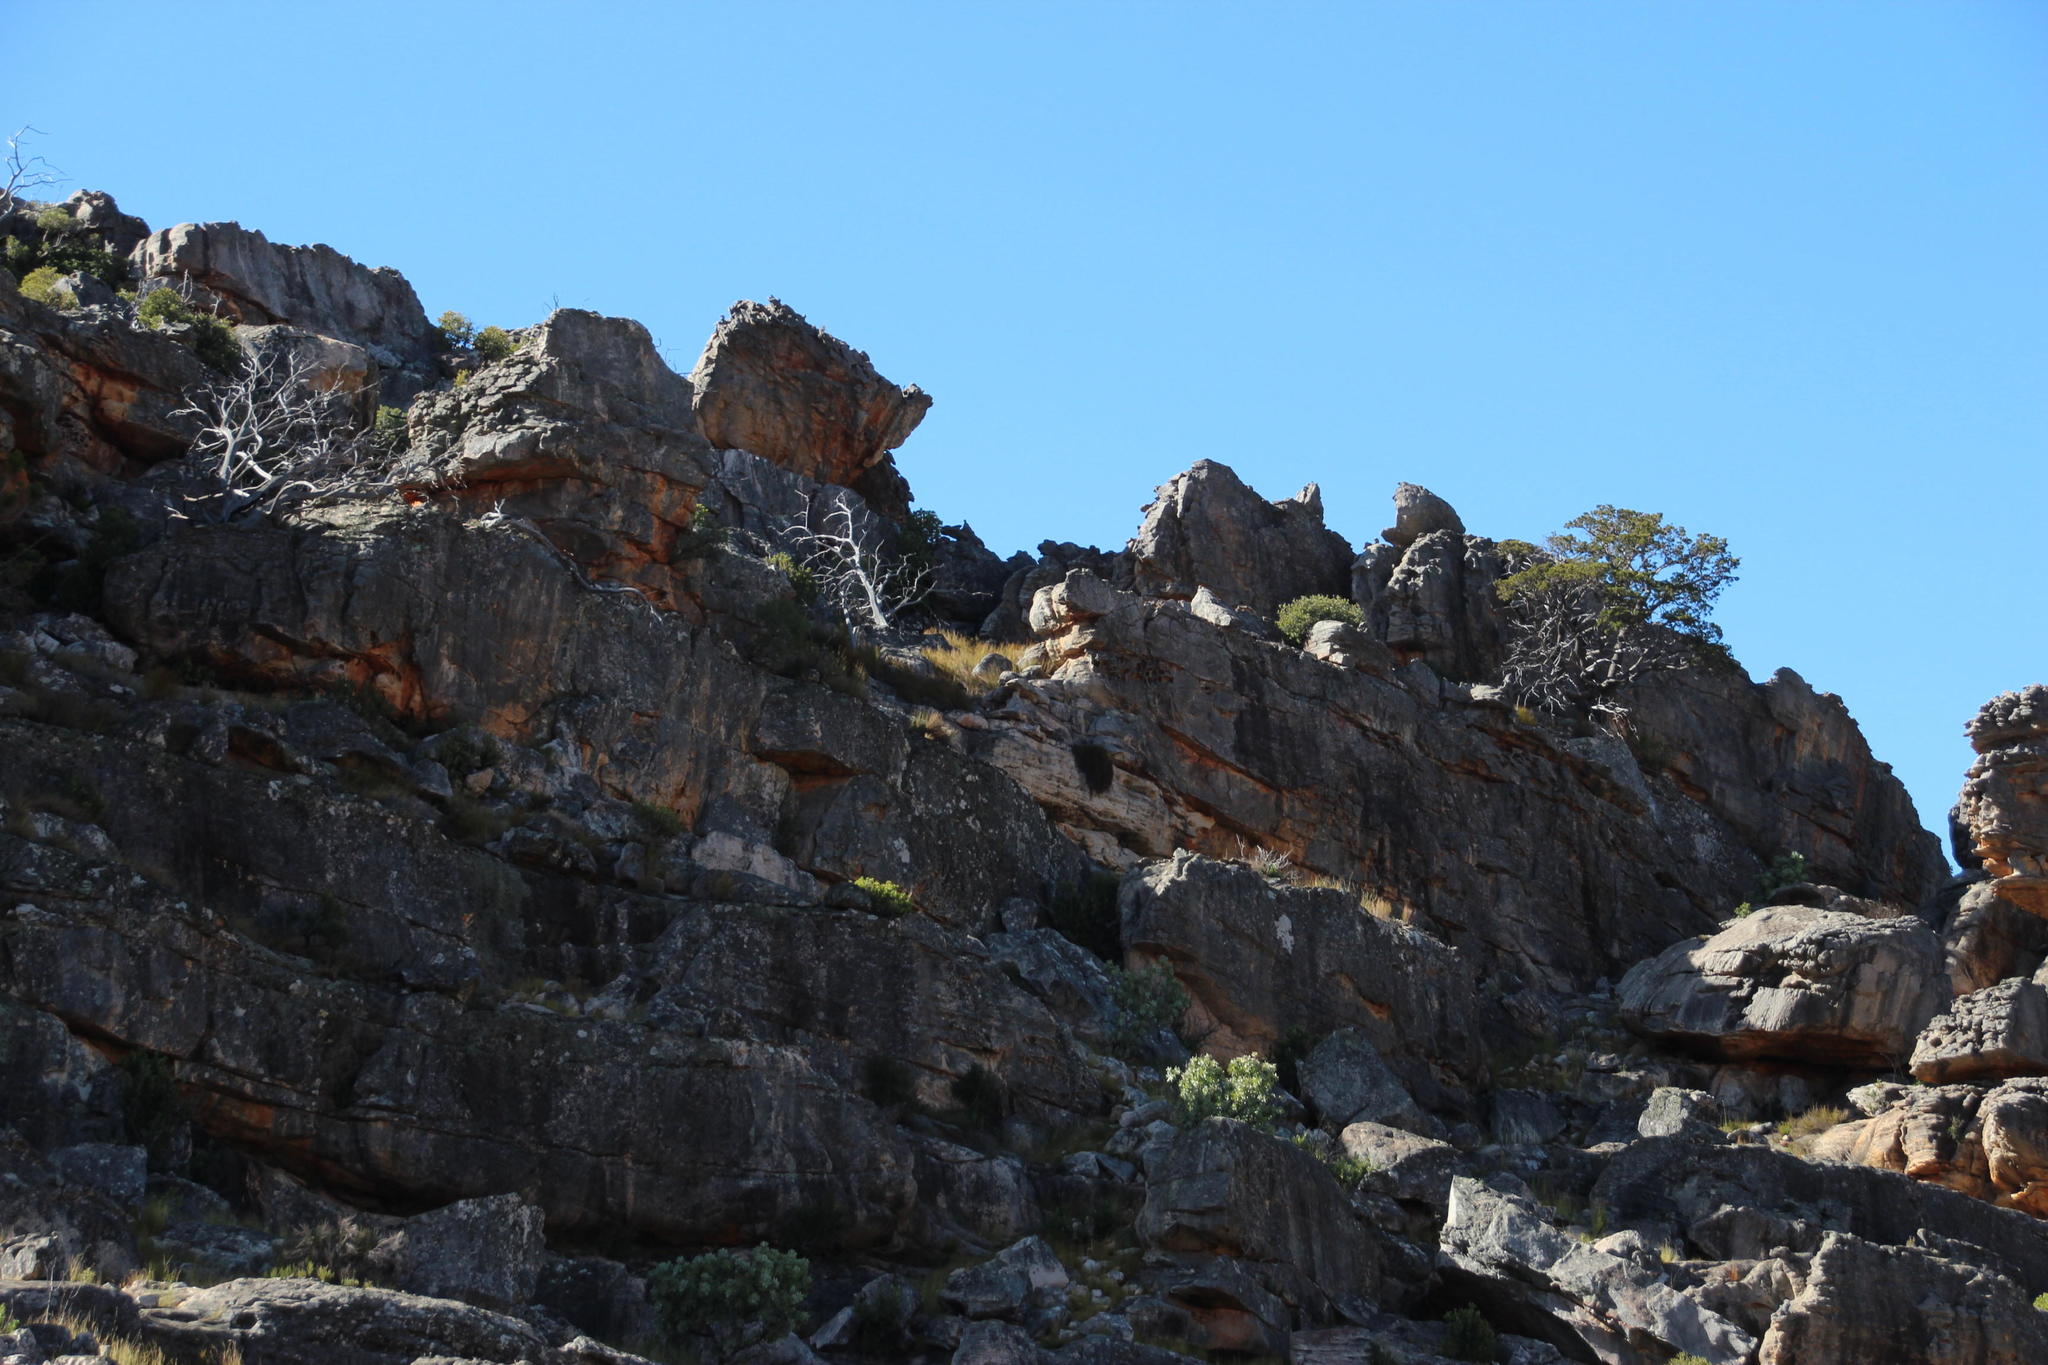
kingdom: Plantae
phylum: Tracheophyta
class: Pinopsida
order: Pinales
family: Cupressaceae
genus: Widdringtonia
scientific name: Widdringtonia nodiflora
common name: Cape cypress
